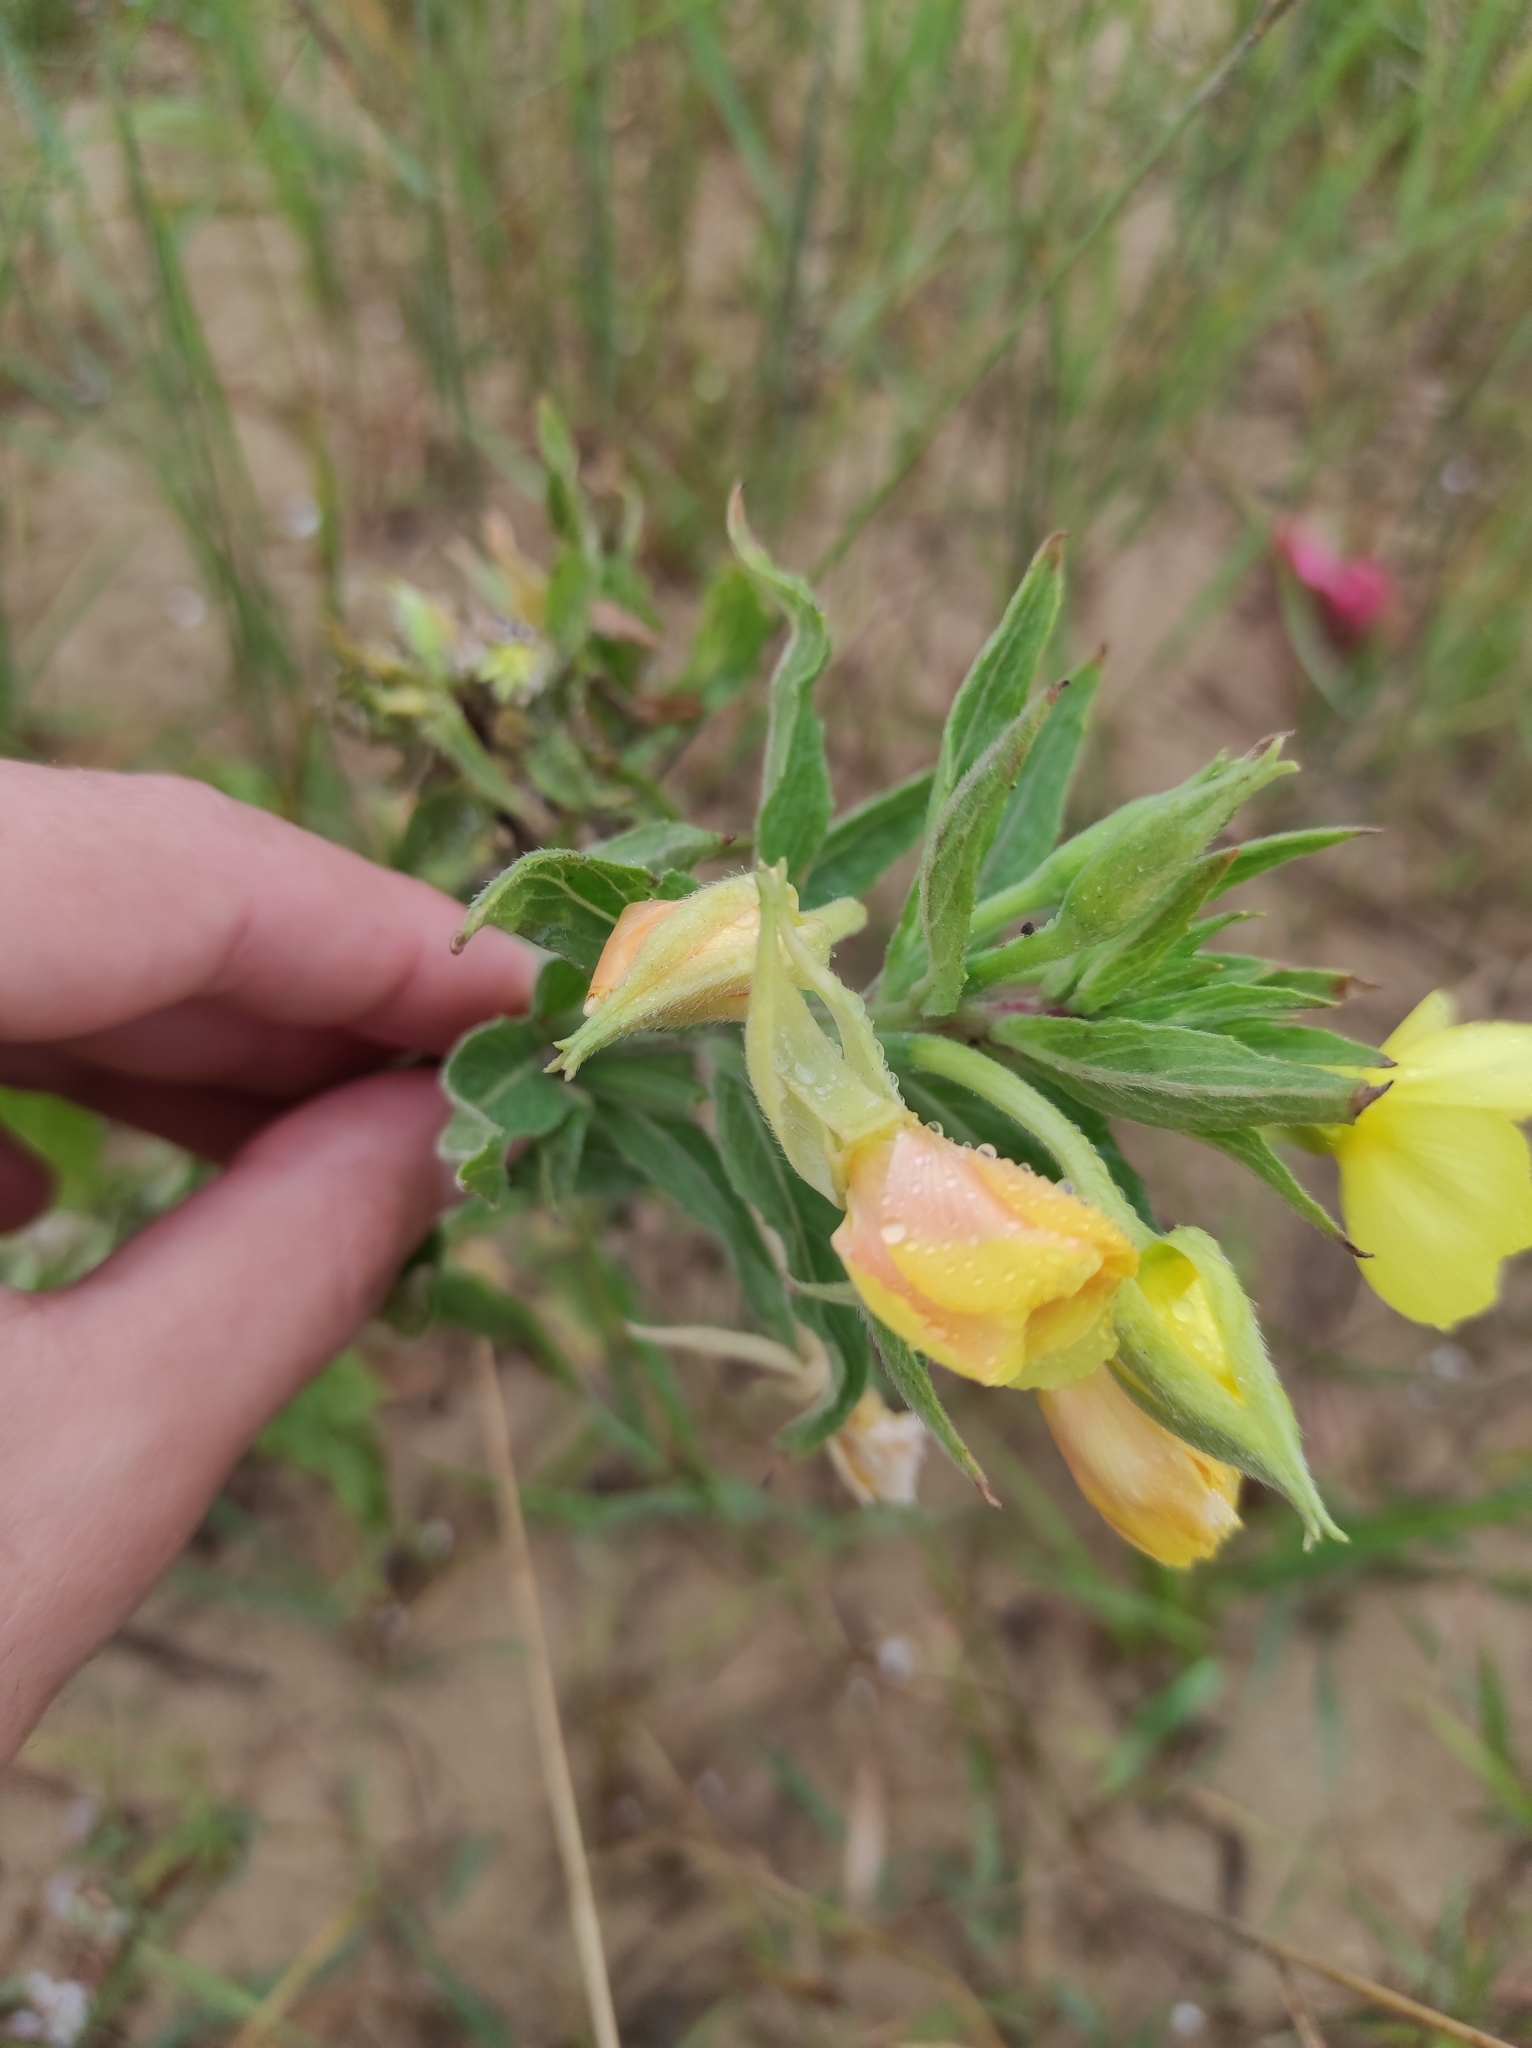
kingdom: Plantae
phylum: Tracheophyta
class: Magnoliopsida
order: Myrtales
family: Onagraceae
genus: Oenothera
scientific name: Oenothera villosa
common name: Hairy evening-primrose
